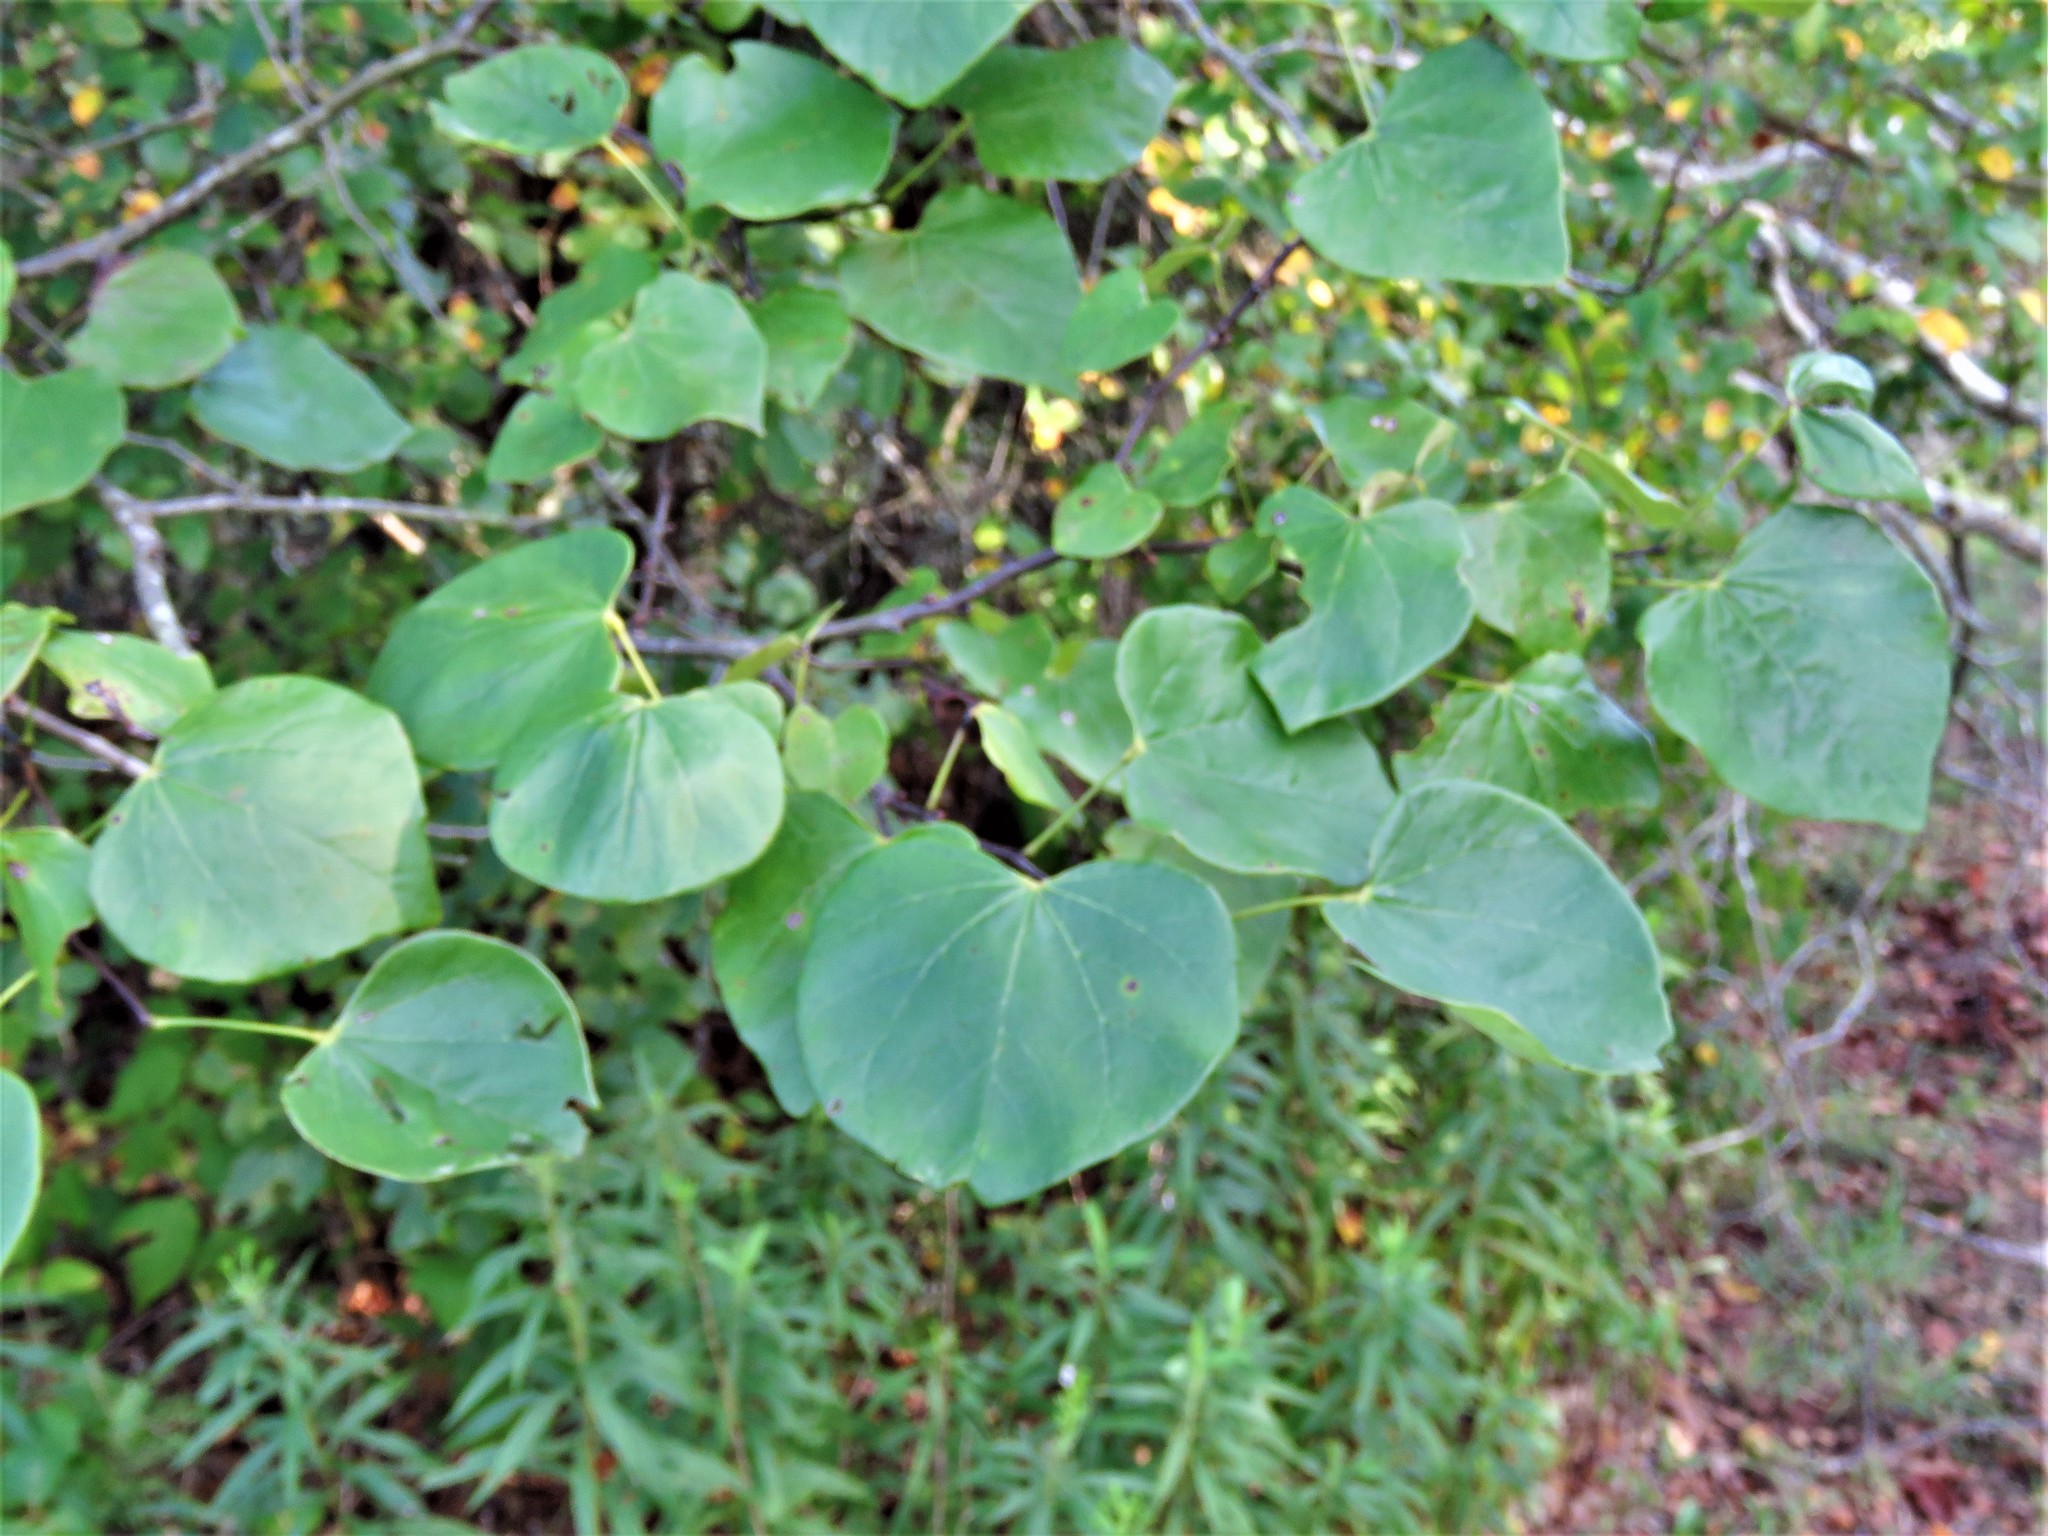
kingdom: Plantae
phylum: Tracheophyta
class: Magnoliopsida
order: Fabales
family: Fabaceae
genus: Cercis
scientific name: Cercis canadensis
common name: Eastern redbud
